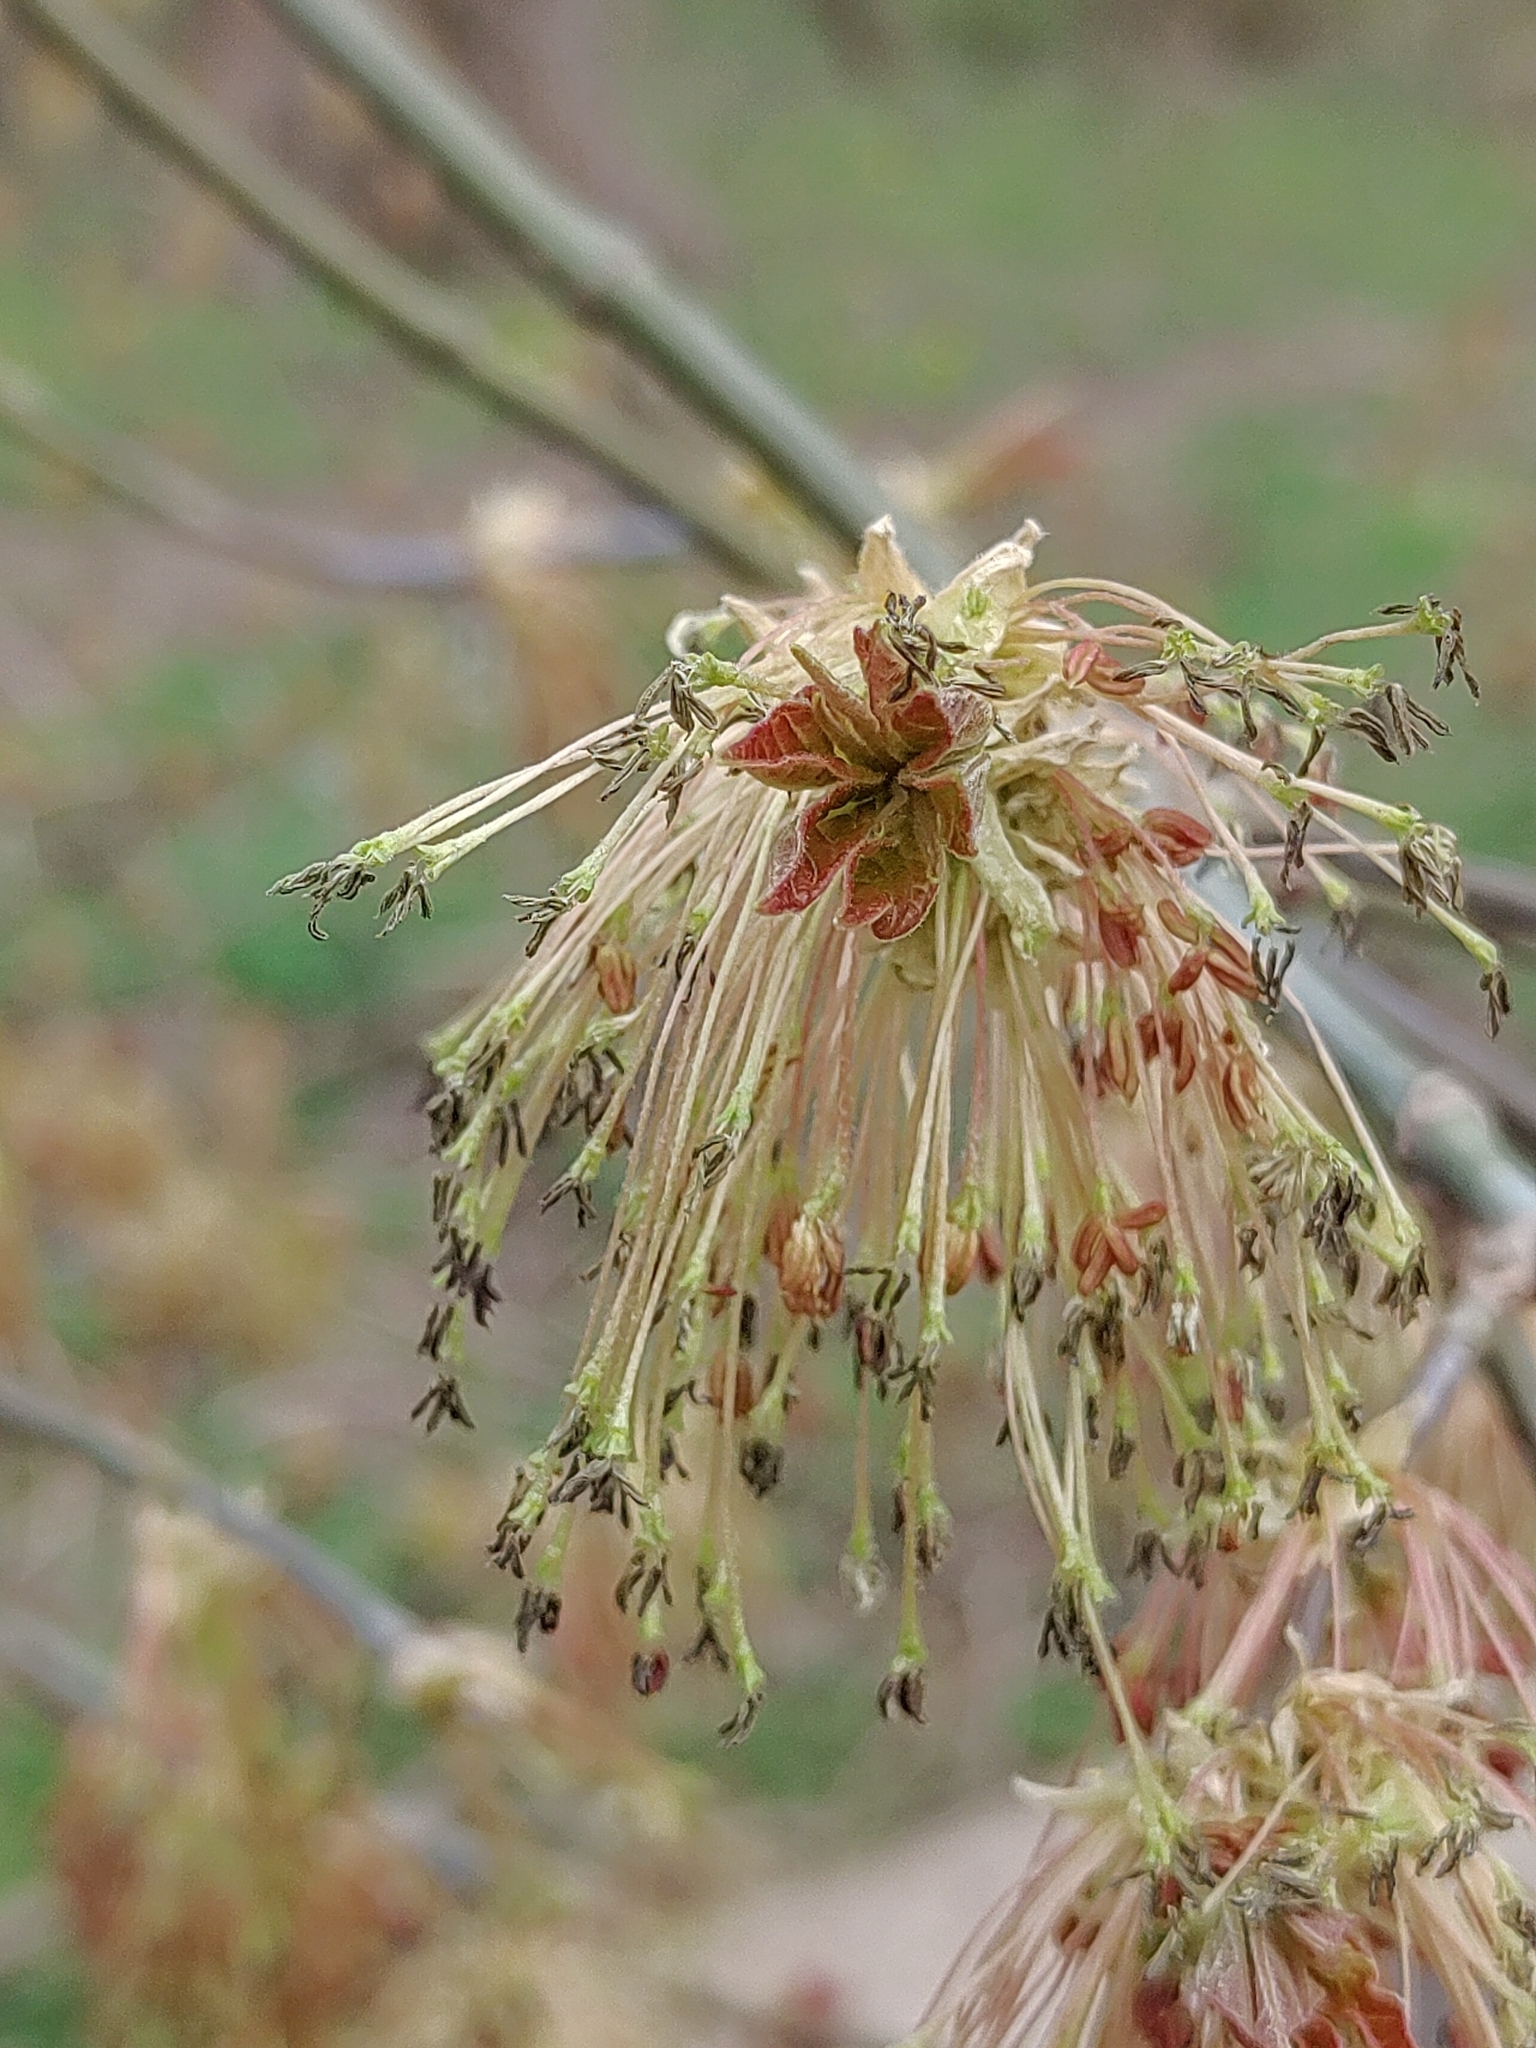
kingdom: Plantae
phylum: Tracheophyta
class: Magnoliopsida
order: Sapindales
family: Sapindaceae
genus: Acer
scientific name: Acer negundo
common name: Ashleaf maple
